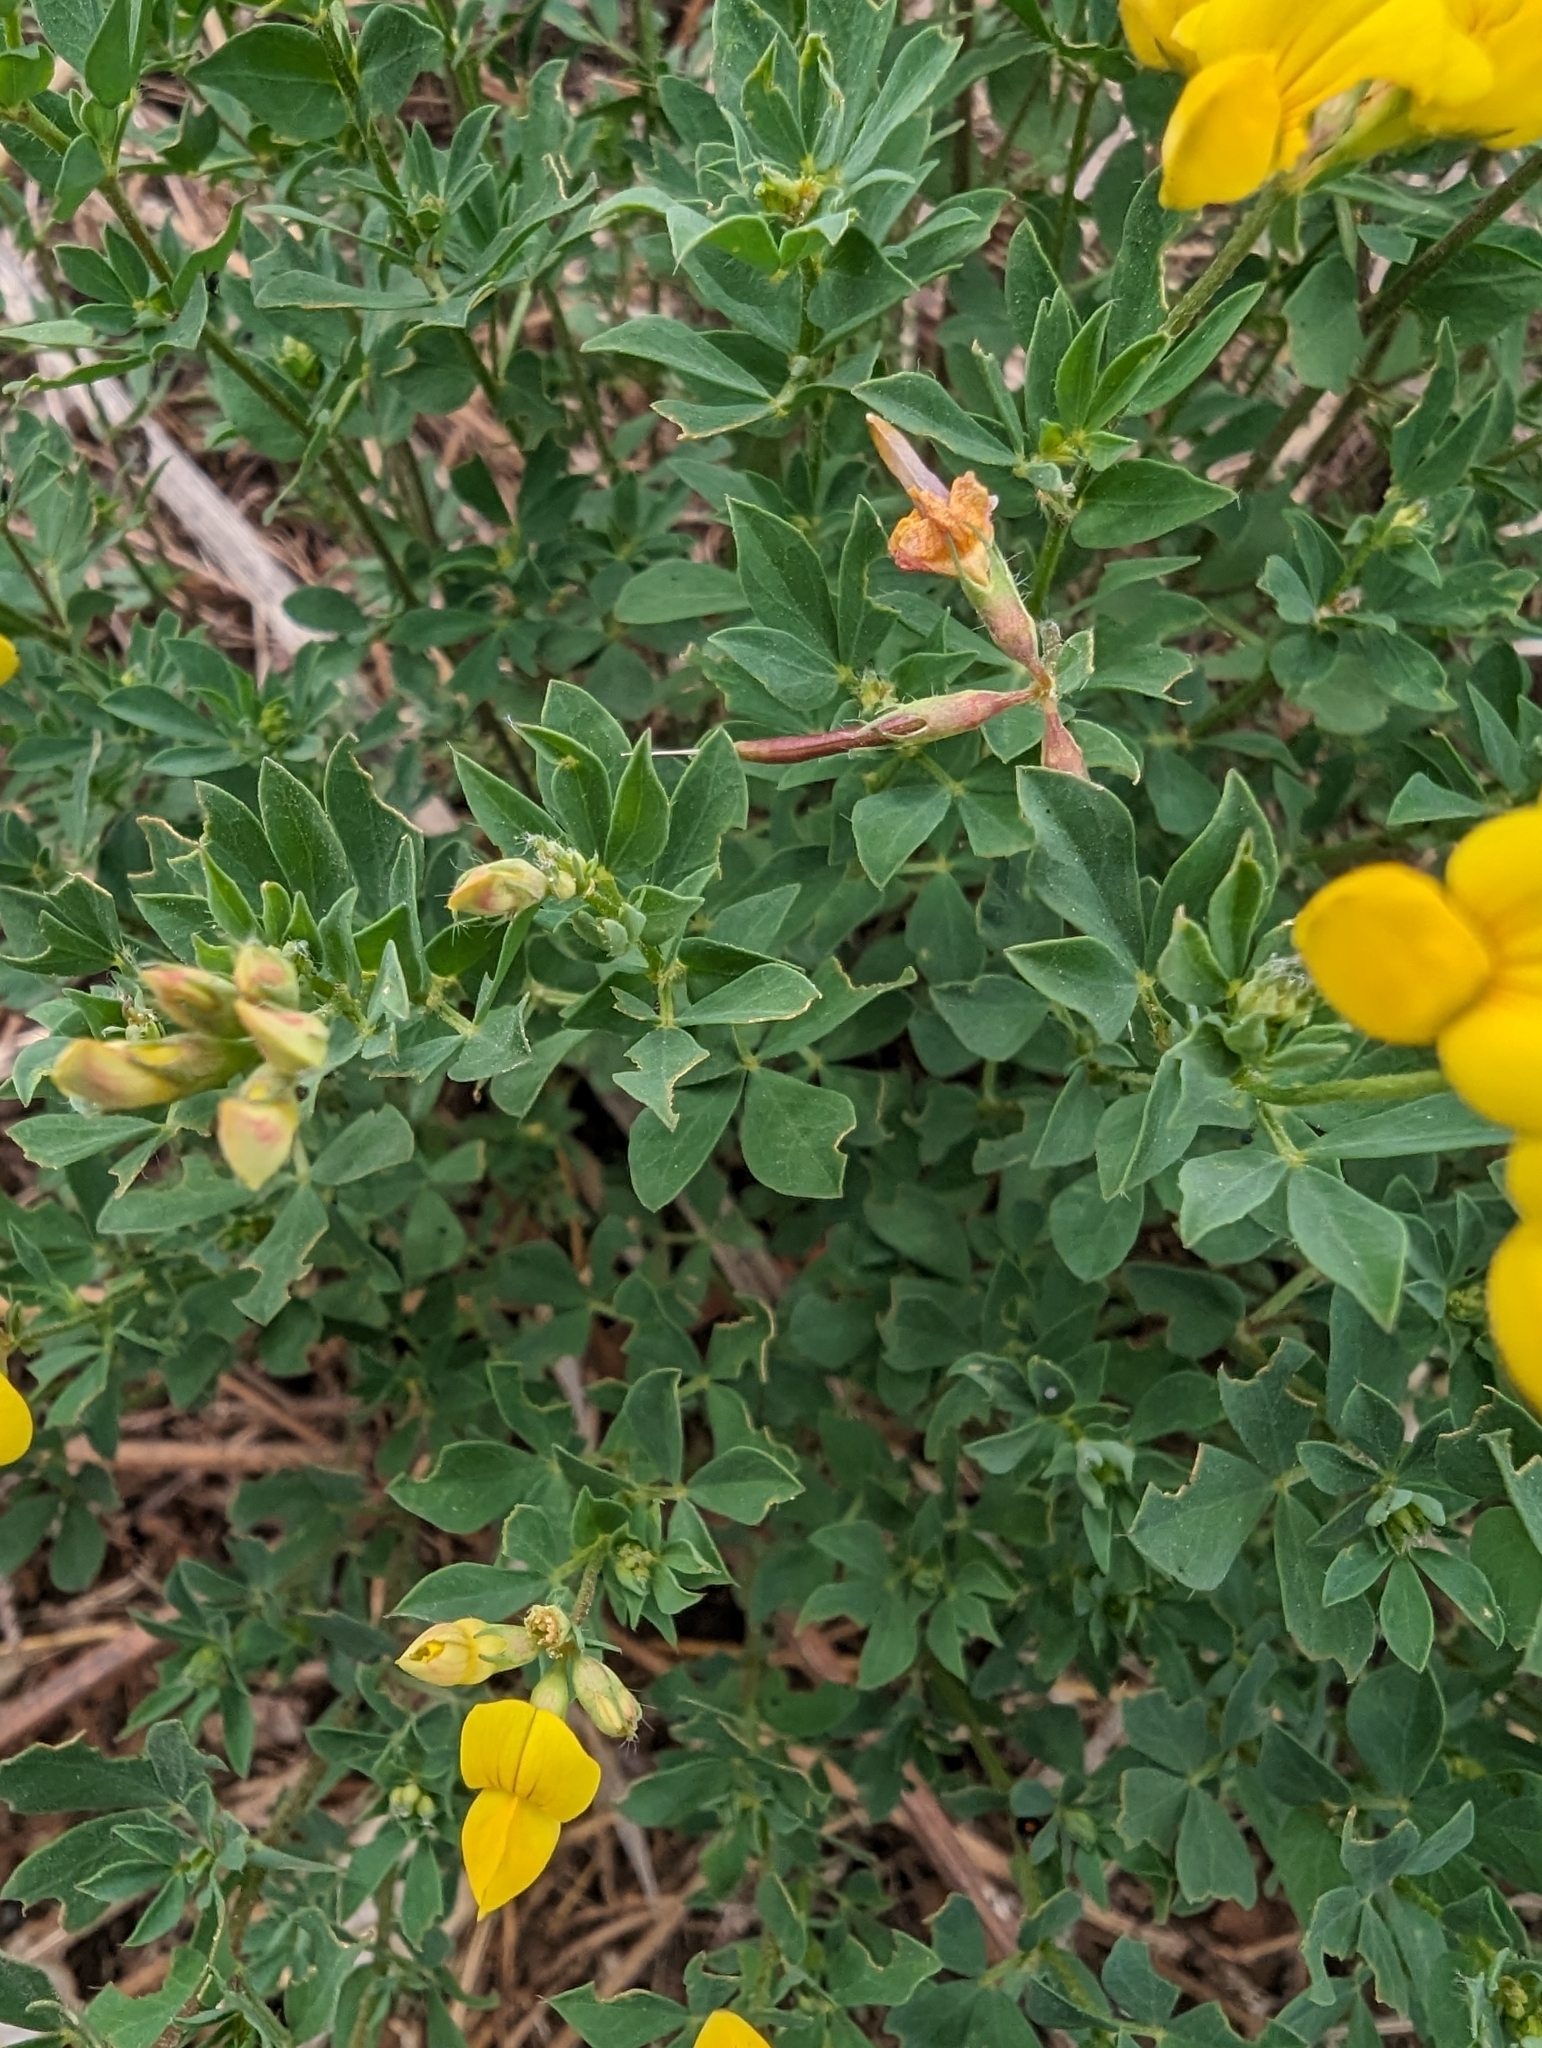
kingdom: Plantae
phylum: Tracheophyta
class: Magnoliopsida
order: Fabales
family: Fabaceae
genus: Lotus
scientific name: Lotus corniculatus
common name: Common bird's-foot-trefoil
